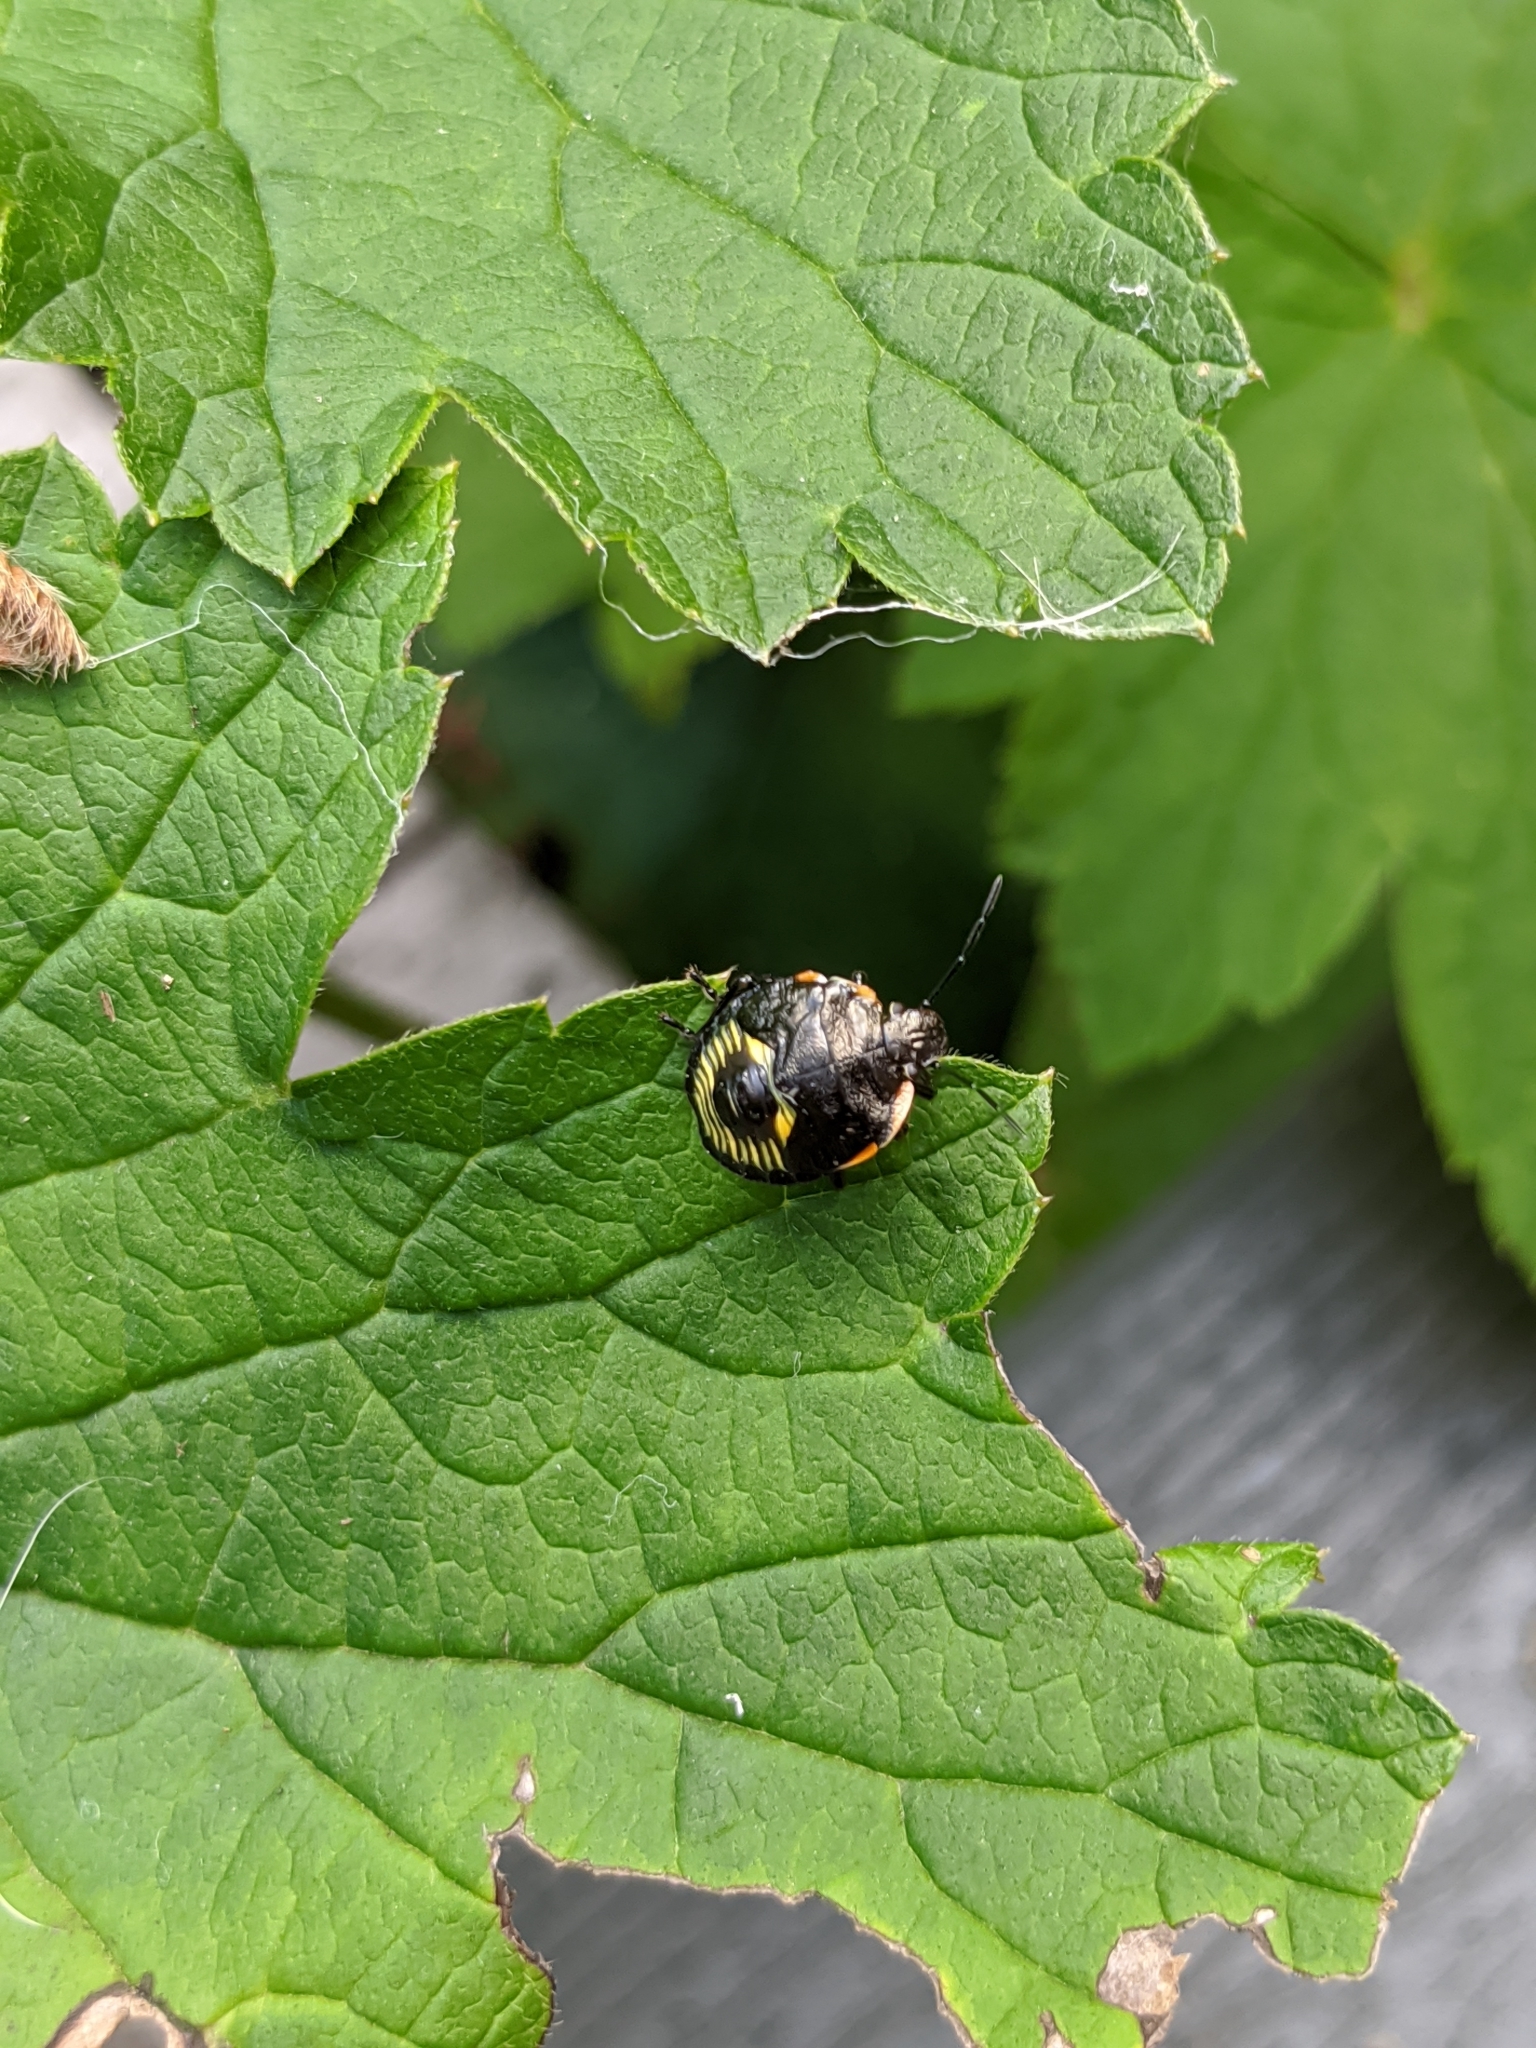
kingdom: Animalia
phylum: Arthropoda
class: Insecta
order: Hemiptera
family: Pentatomidae
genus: Chinavia
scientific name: Chinavia hilaris
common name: Green stink bug
